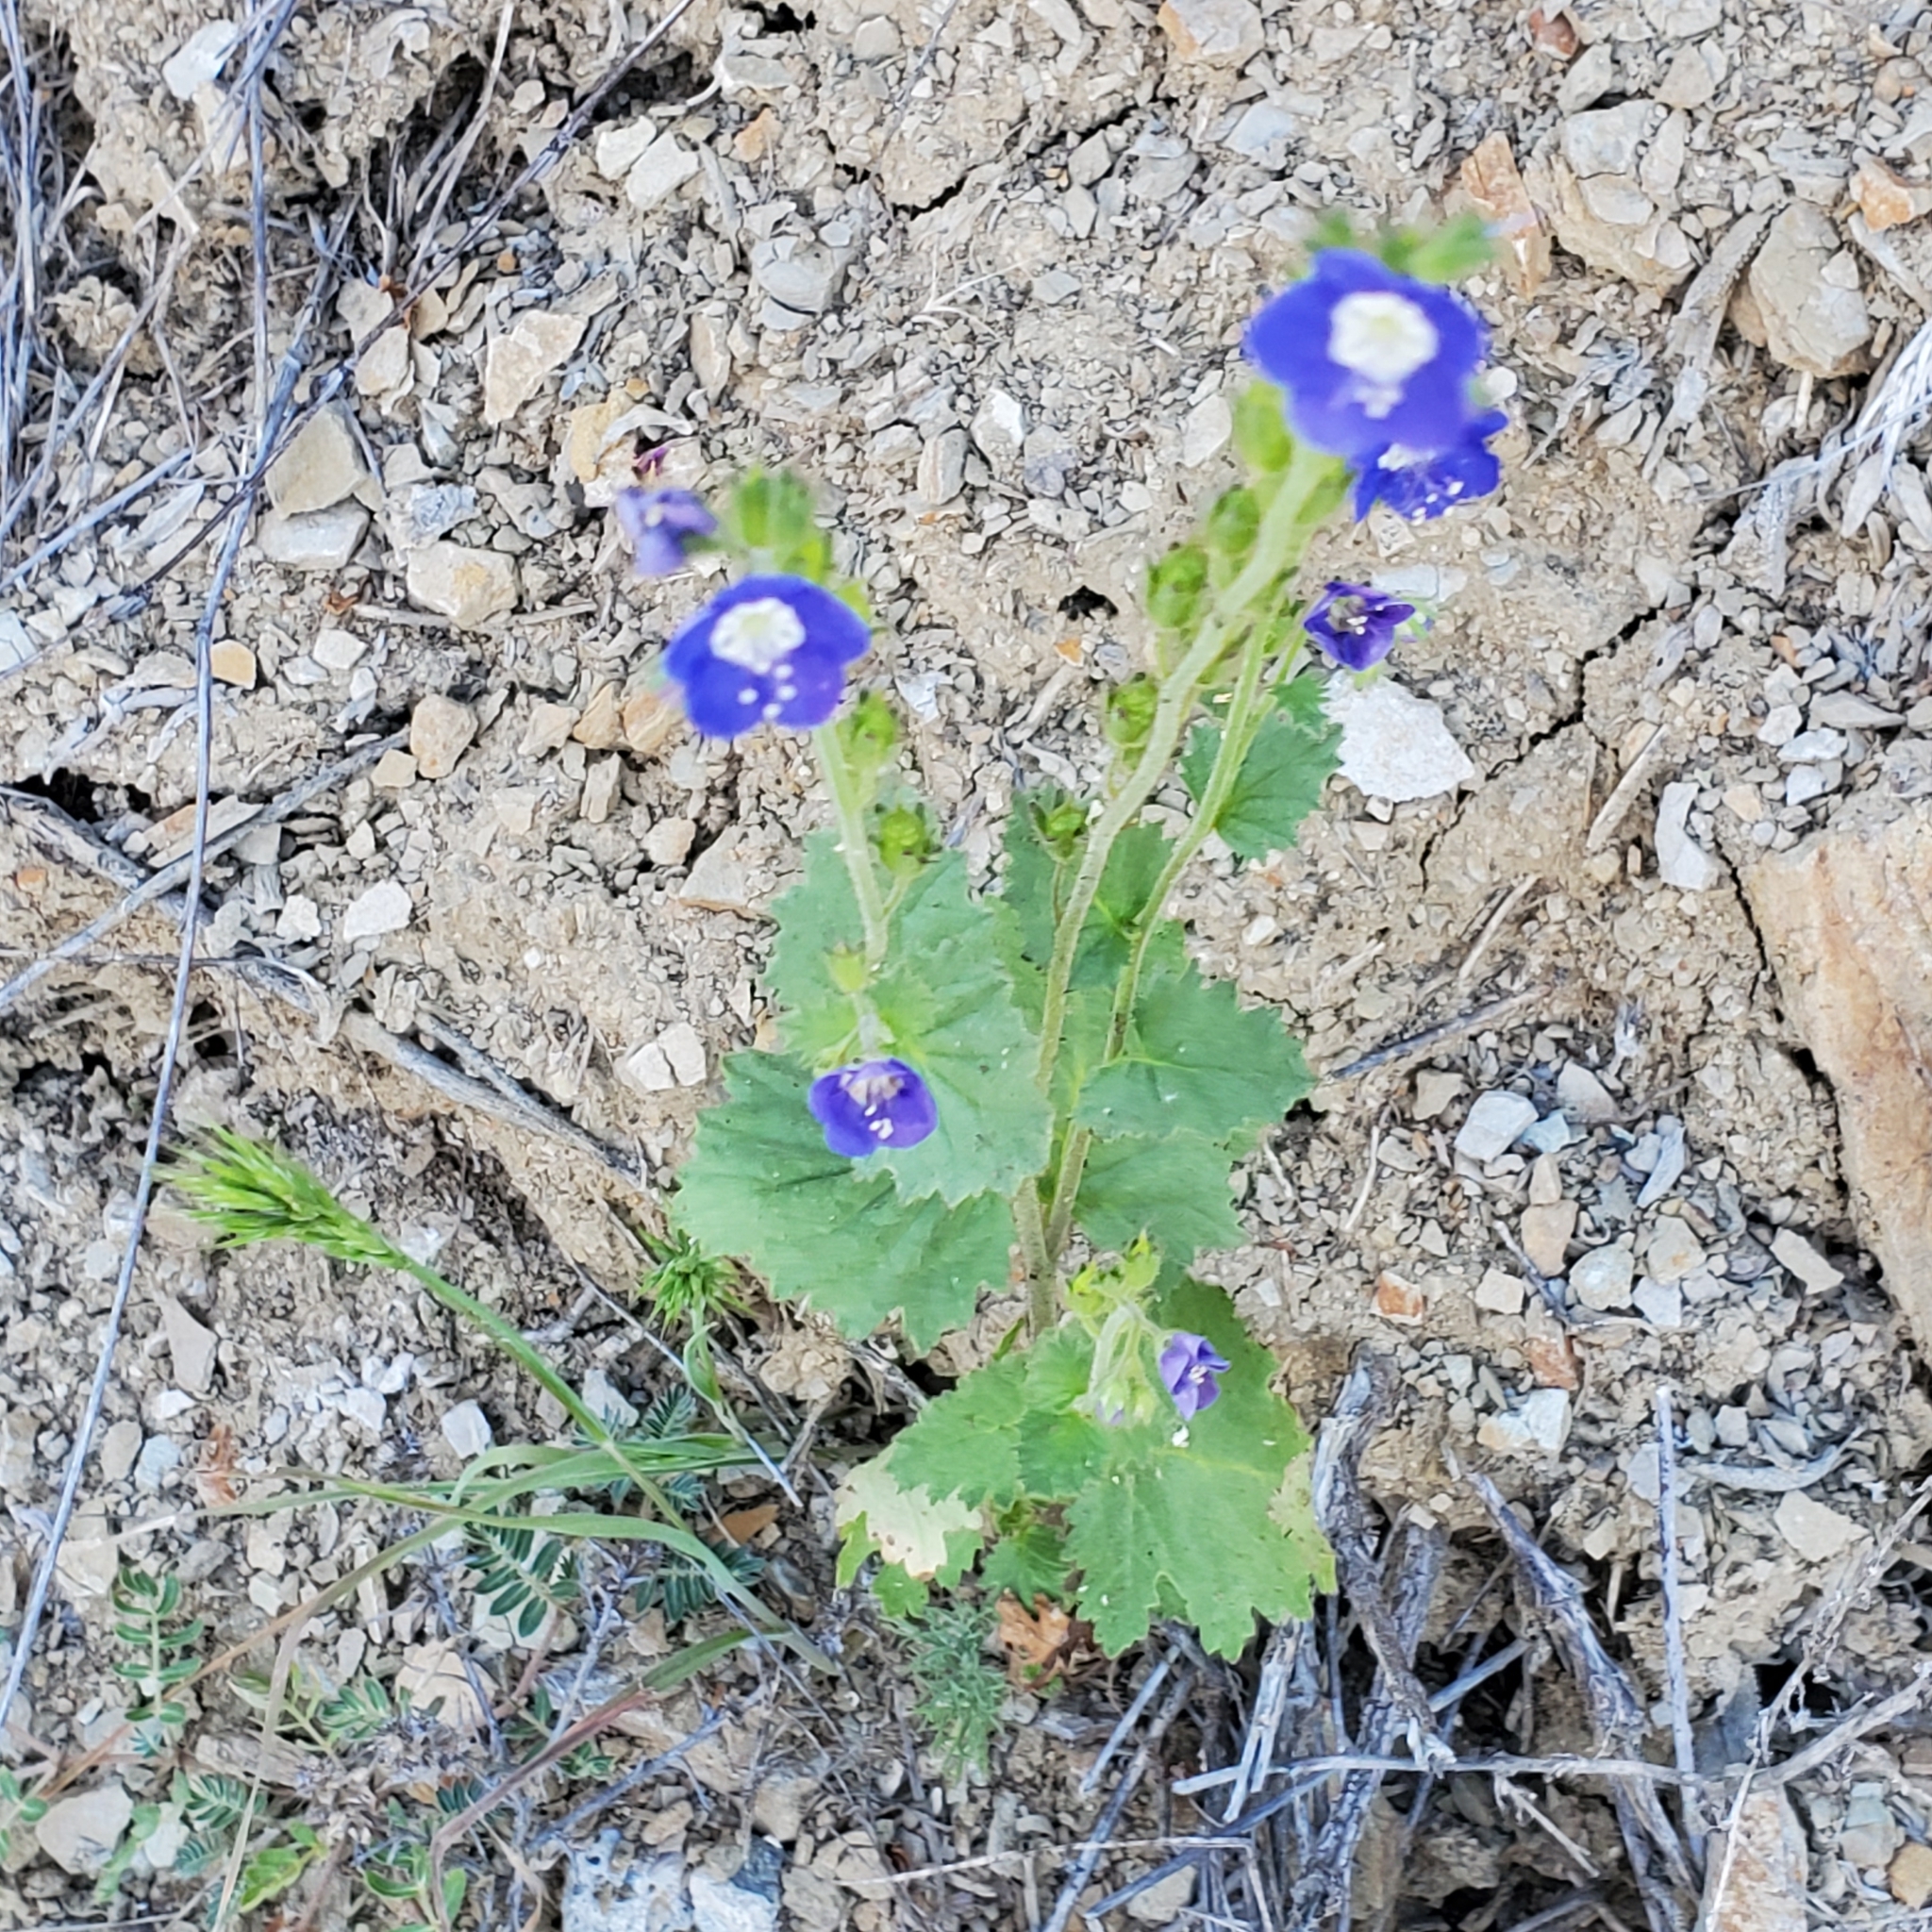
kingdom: Plantae
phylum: Tracheophyta
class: Magnoliopsida
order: Boraginales
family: Hydrophyllaceae
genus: Phacelia
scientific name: Phacelia viscida
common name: Sticky phacelia
